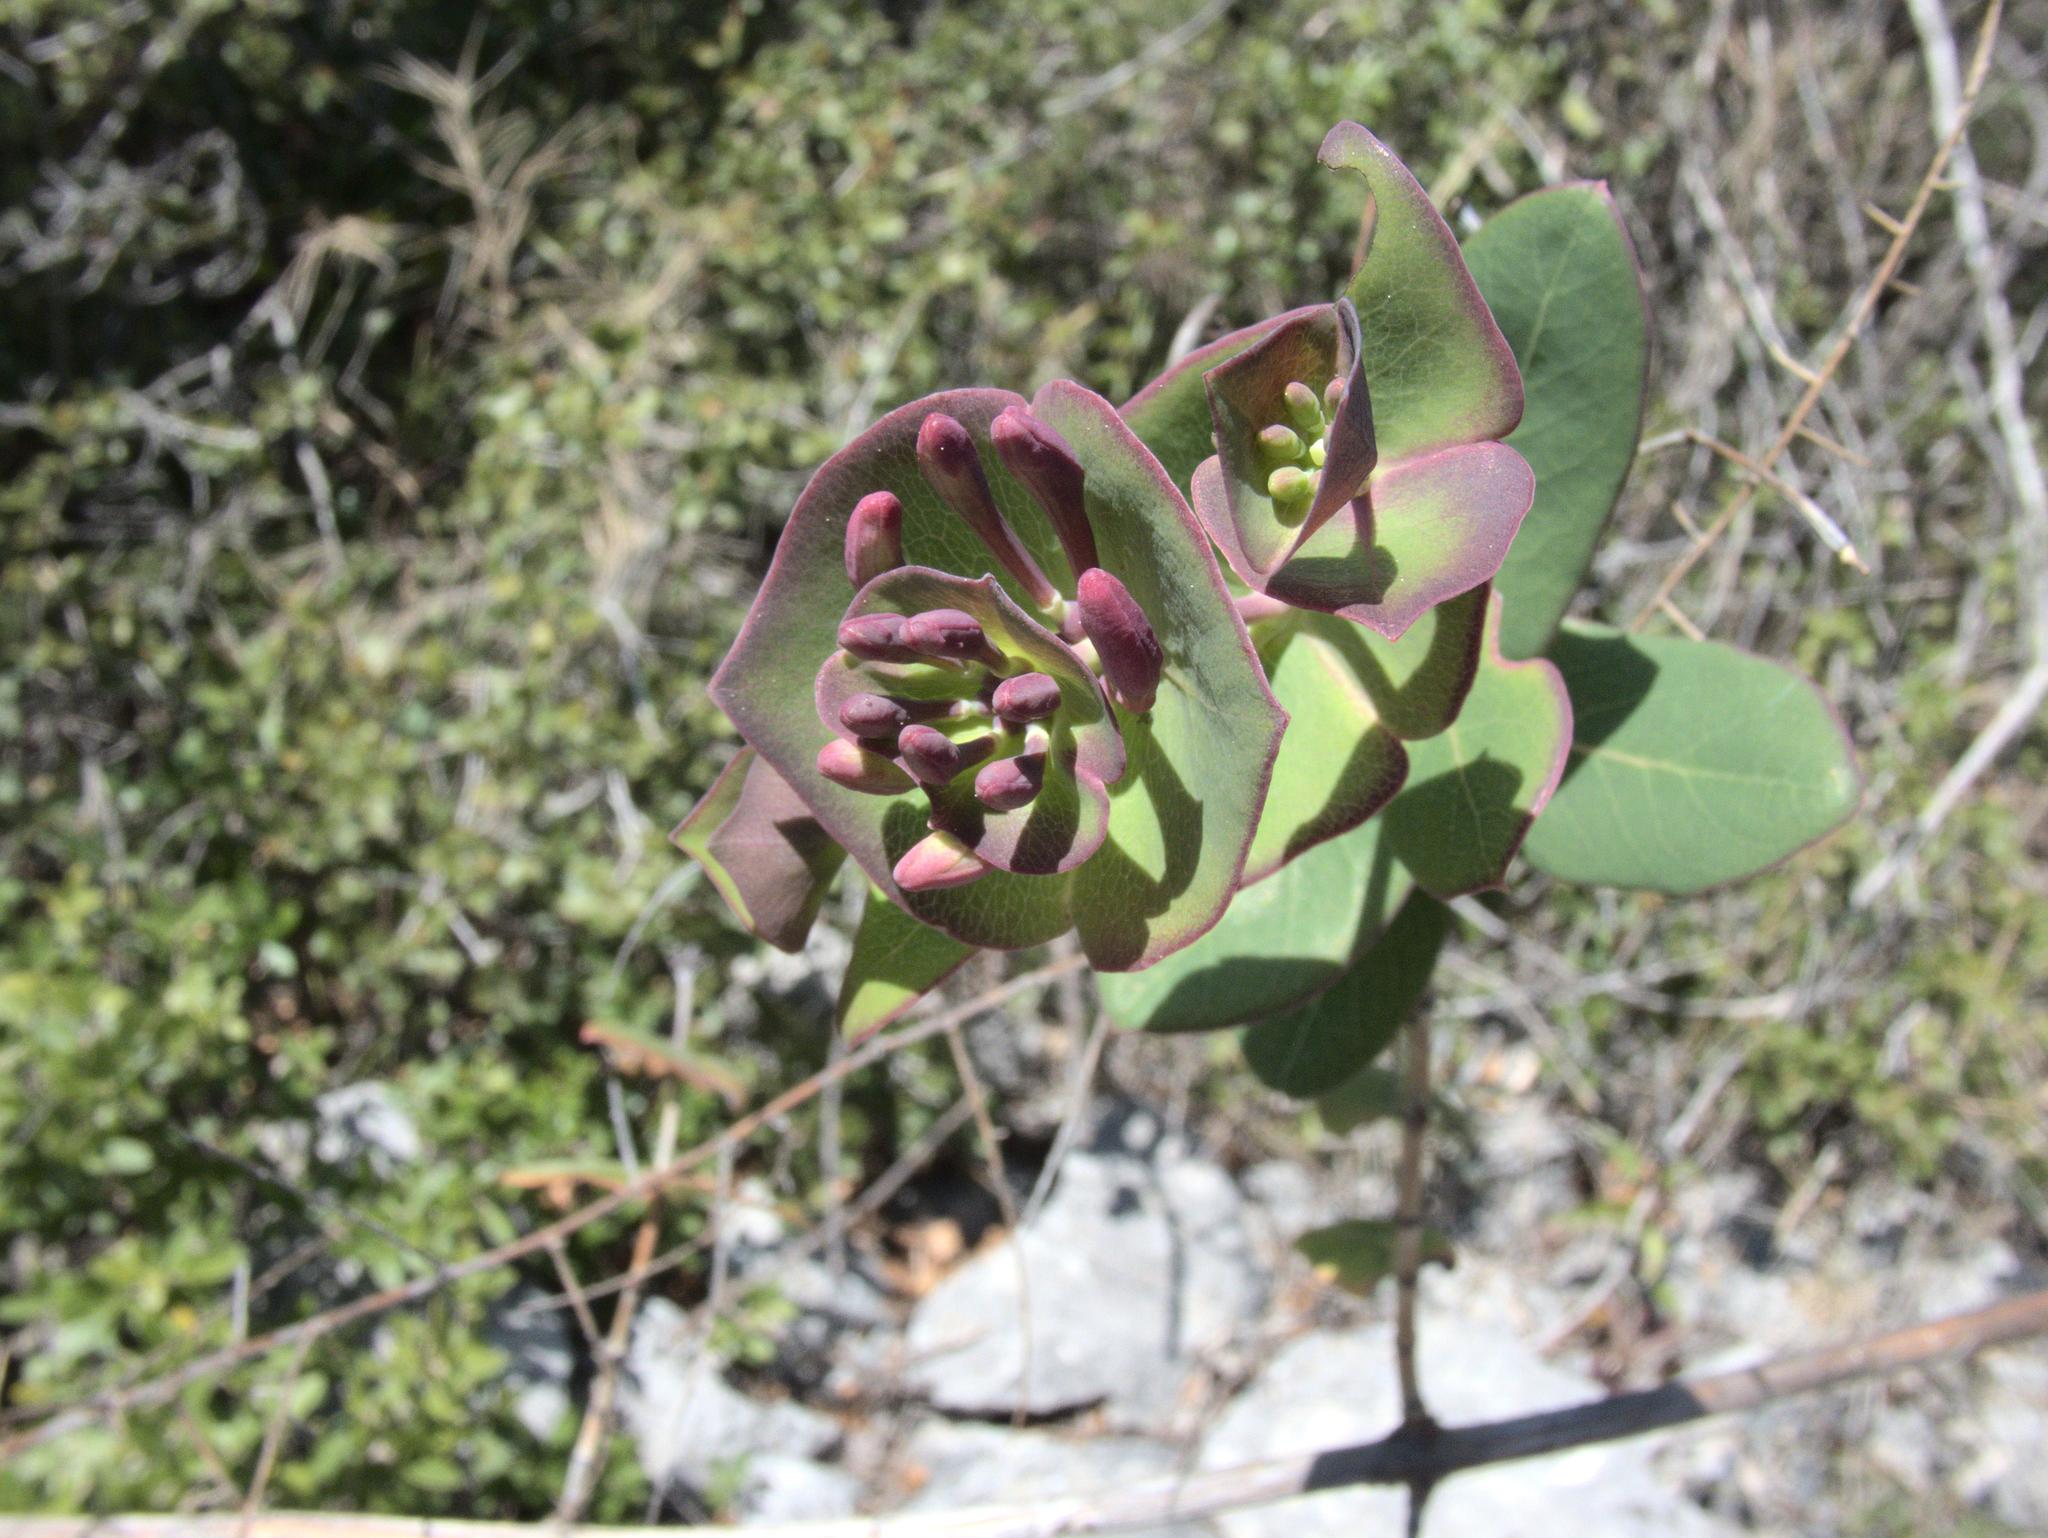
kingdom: Plantae
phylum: Tracheophyta
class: Magnoliopsida
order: Dipsacales
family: Caprifoliaceae
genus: Lonicera
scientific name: Lonicera implexa
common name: Minorca honeysuckle
